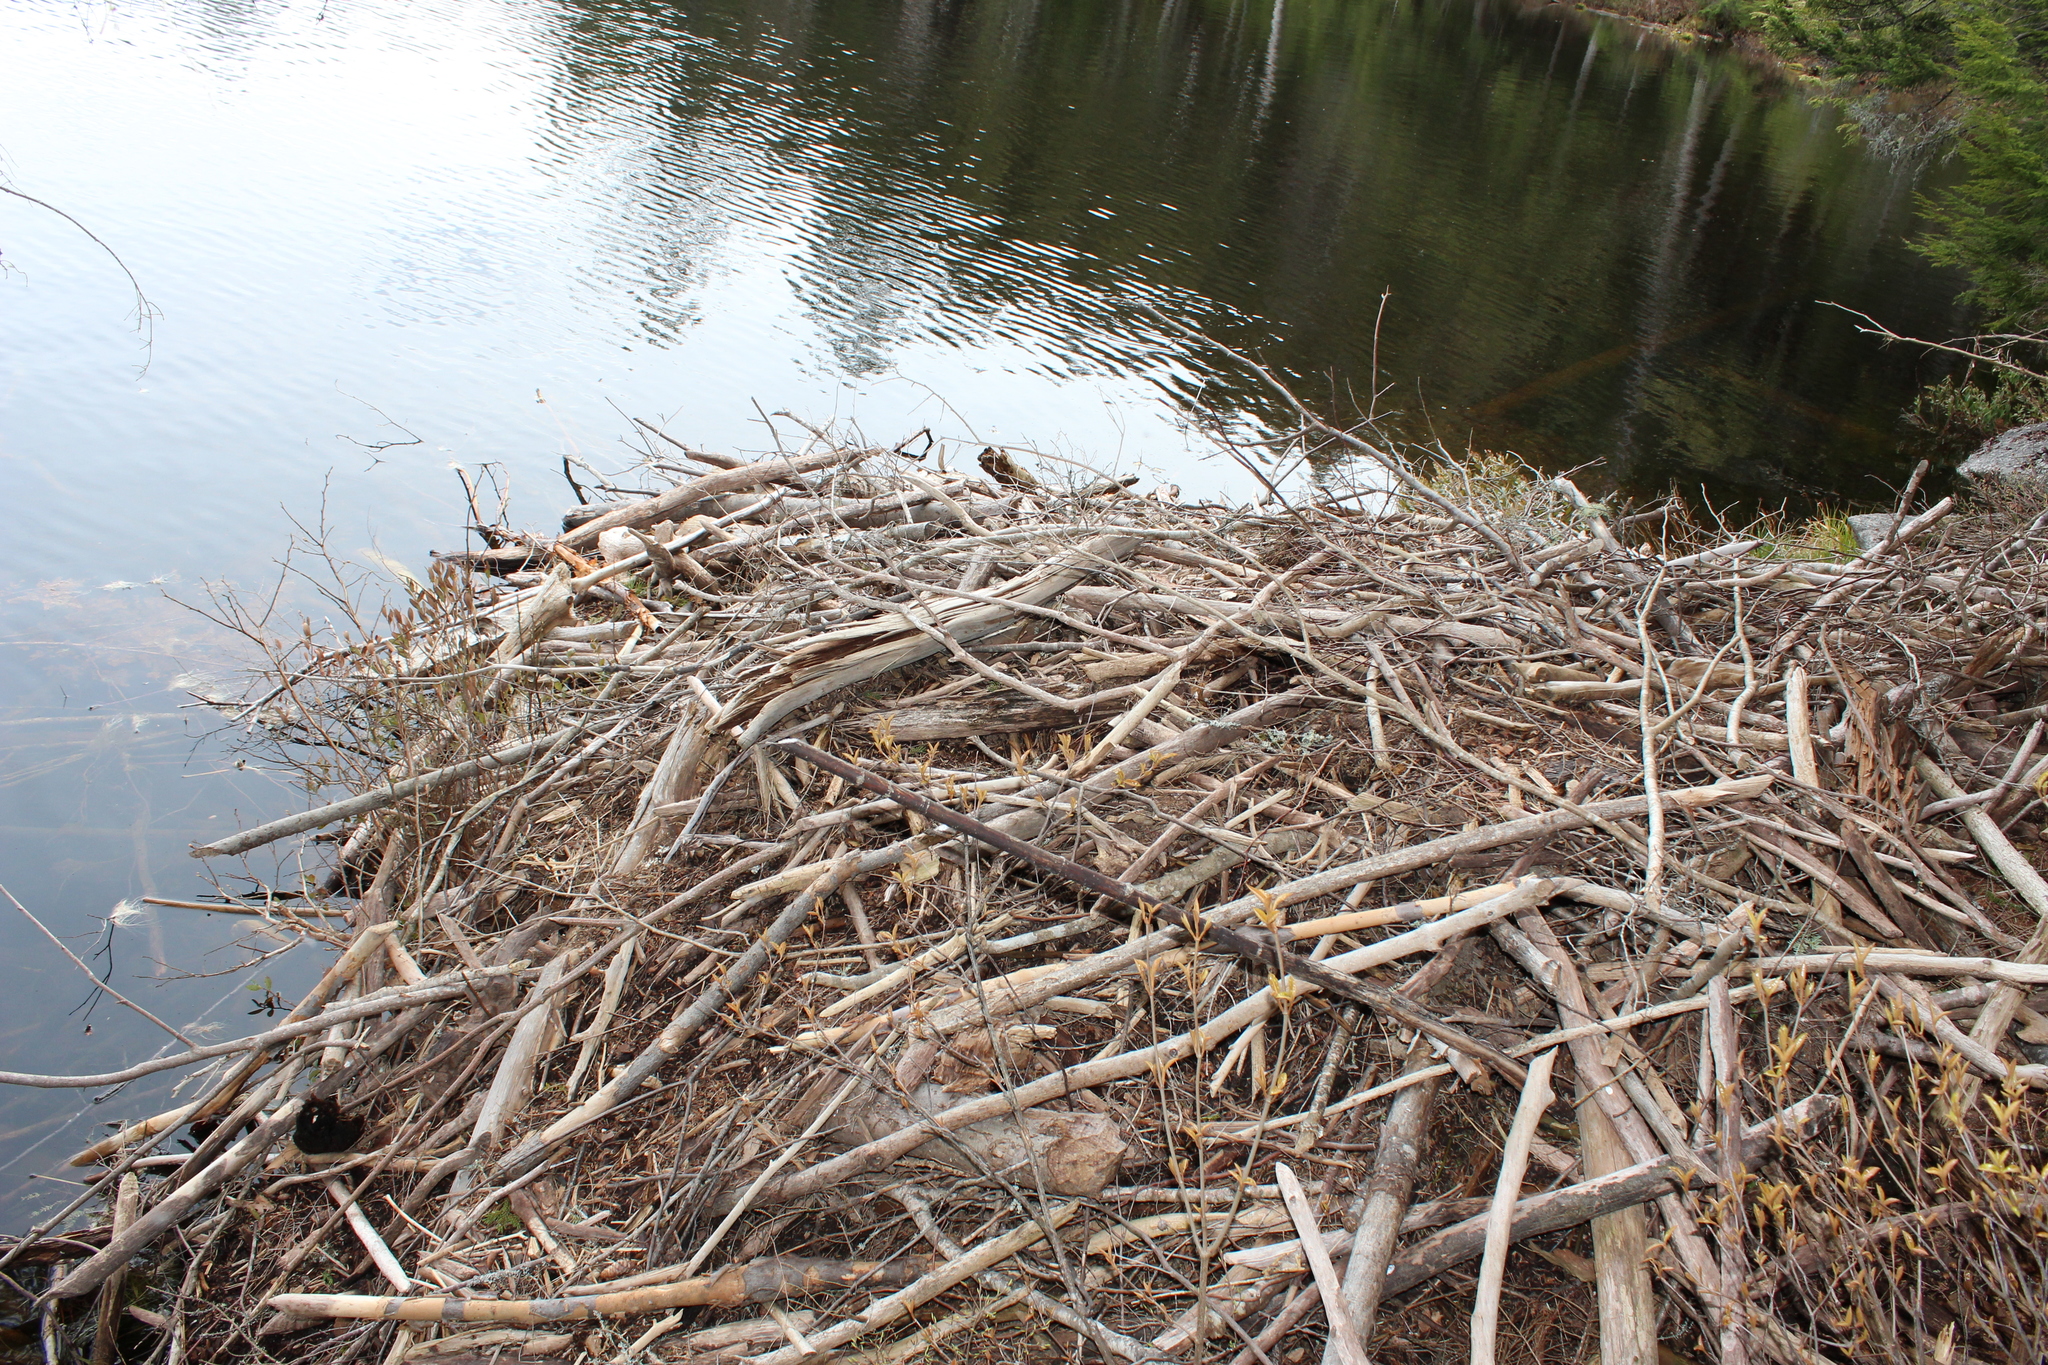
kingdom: Animalia
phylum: Chordata
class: Mammalia
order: Rodentia
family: Castoridae
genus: Castor
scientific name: Castor canadensis
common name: American beaver
